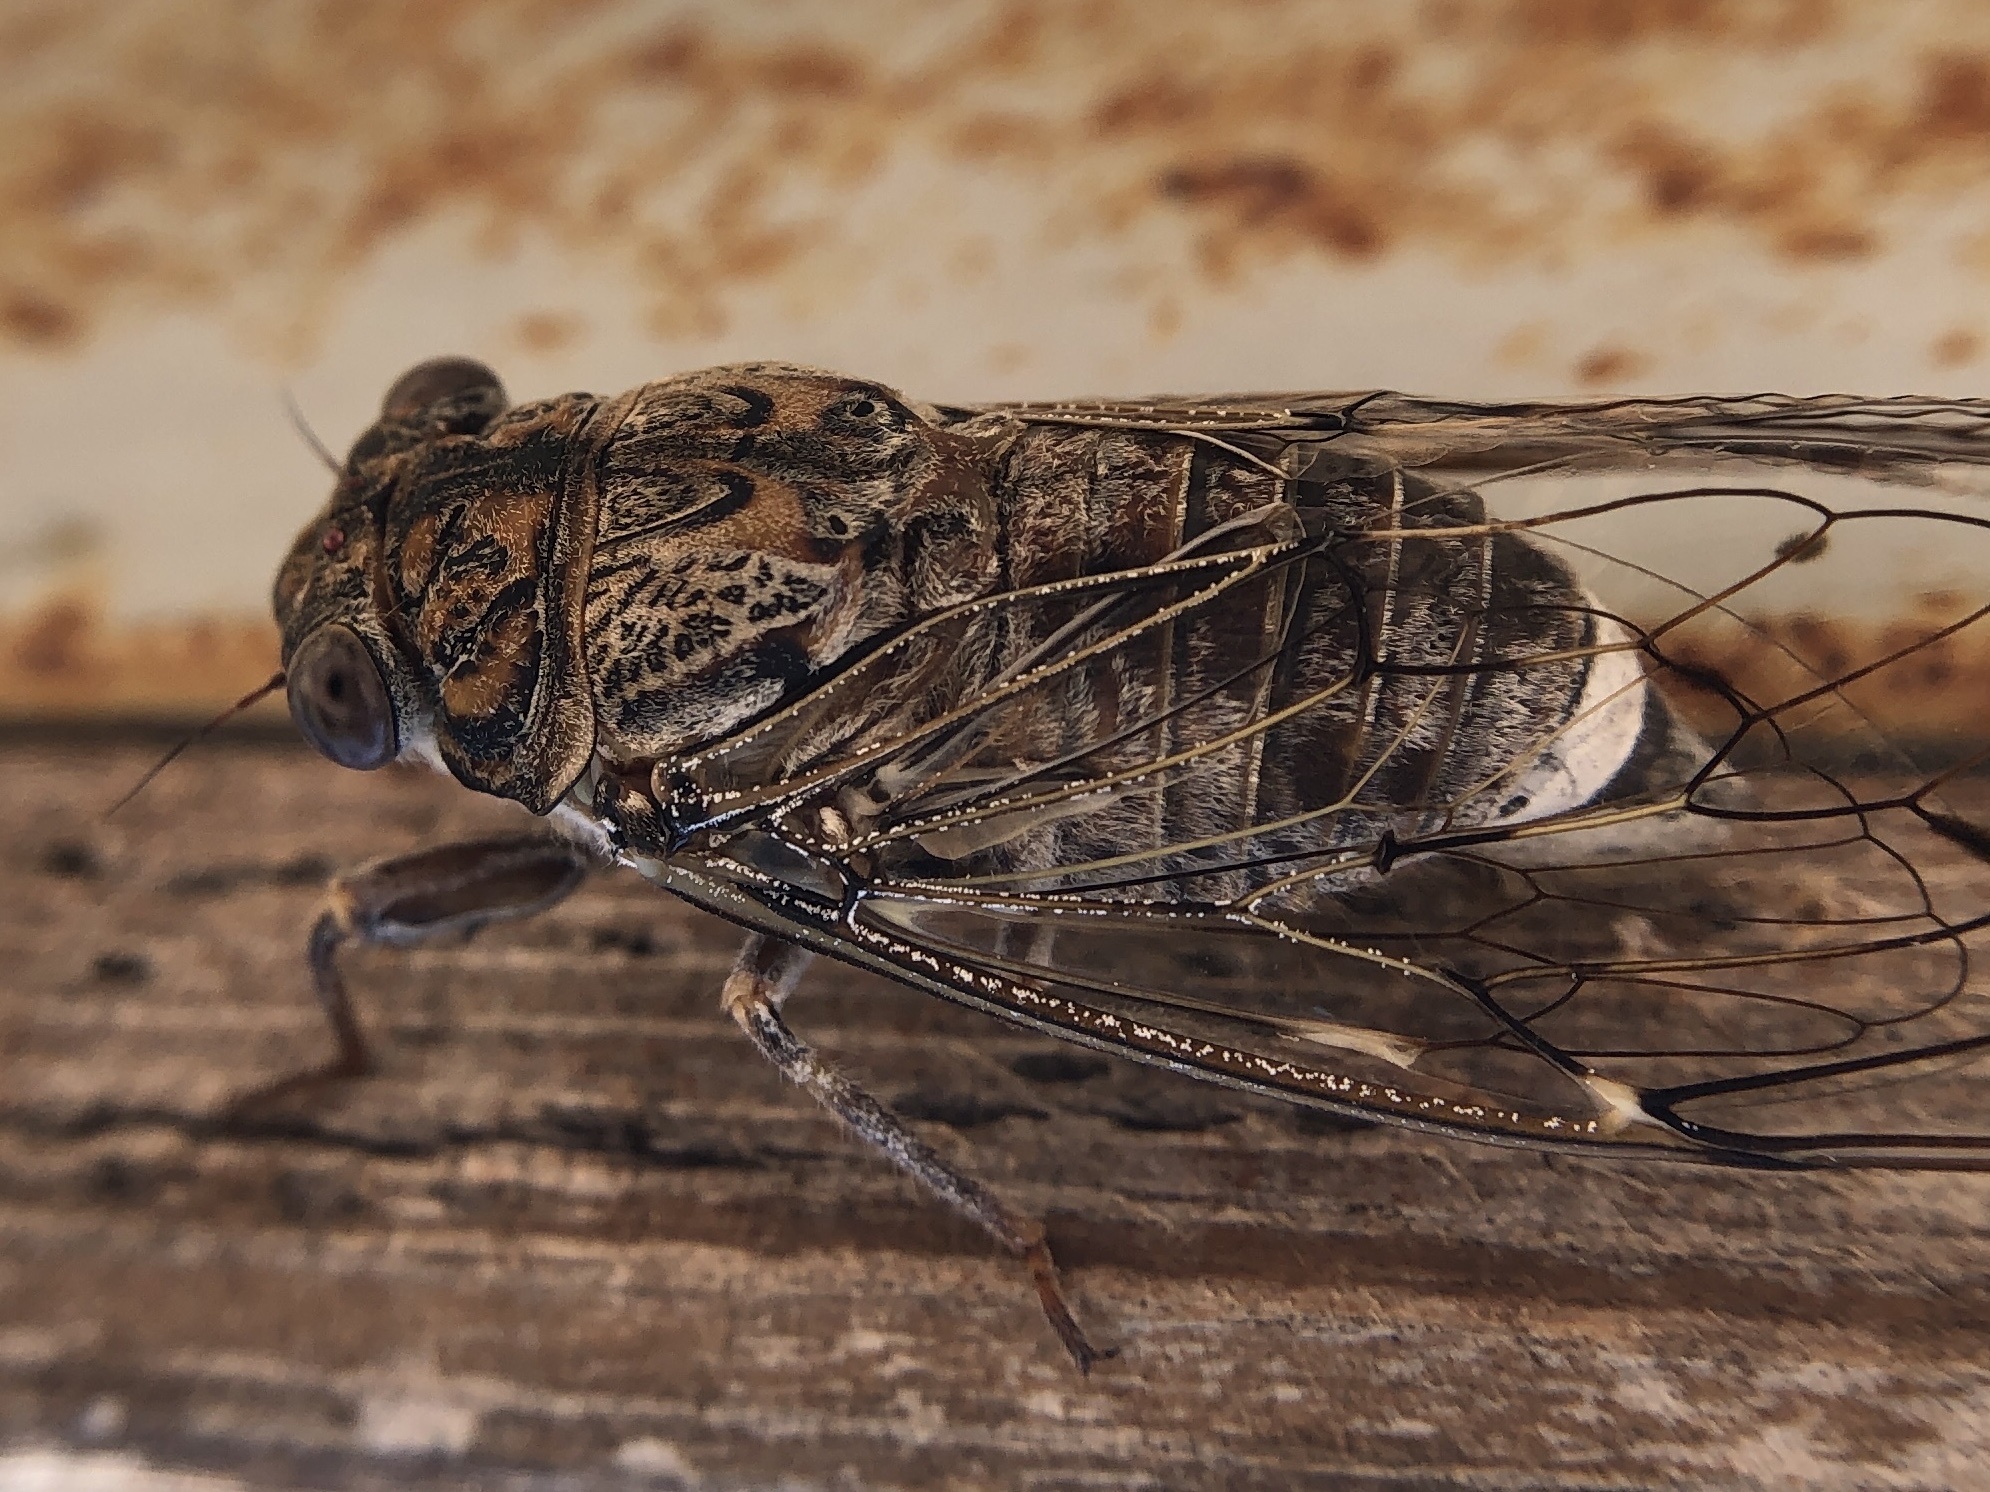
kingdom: Animalia
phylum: Arthropoda
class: Insecta
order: Hemiptera
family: Cicadidae
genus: Cicada
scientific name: Cicada barbara
